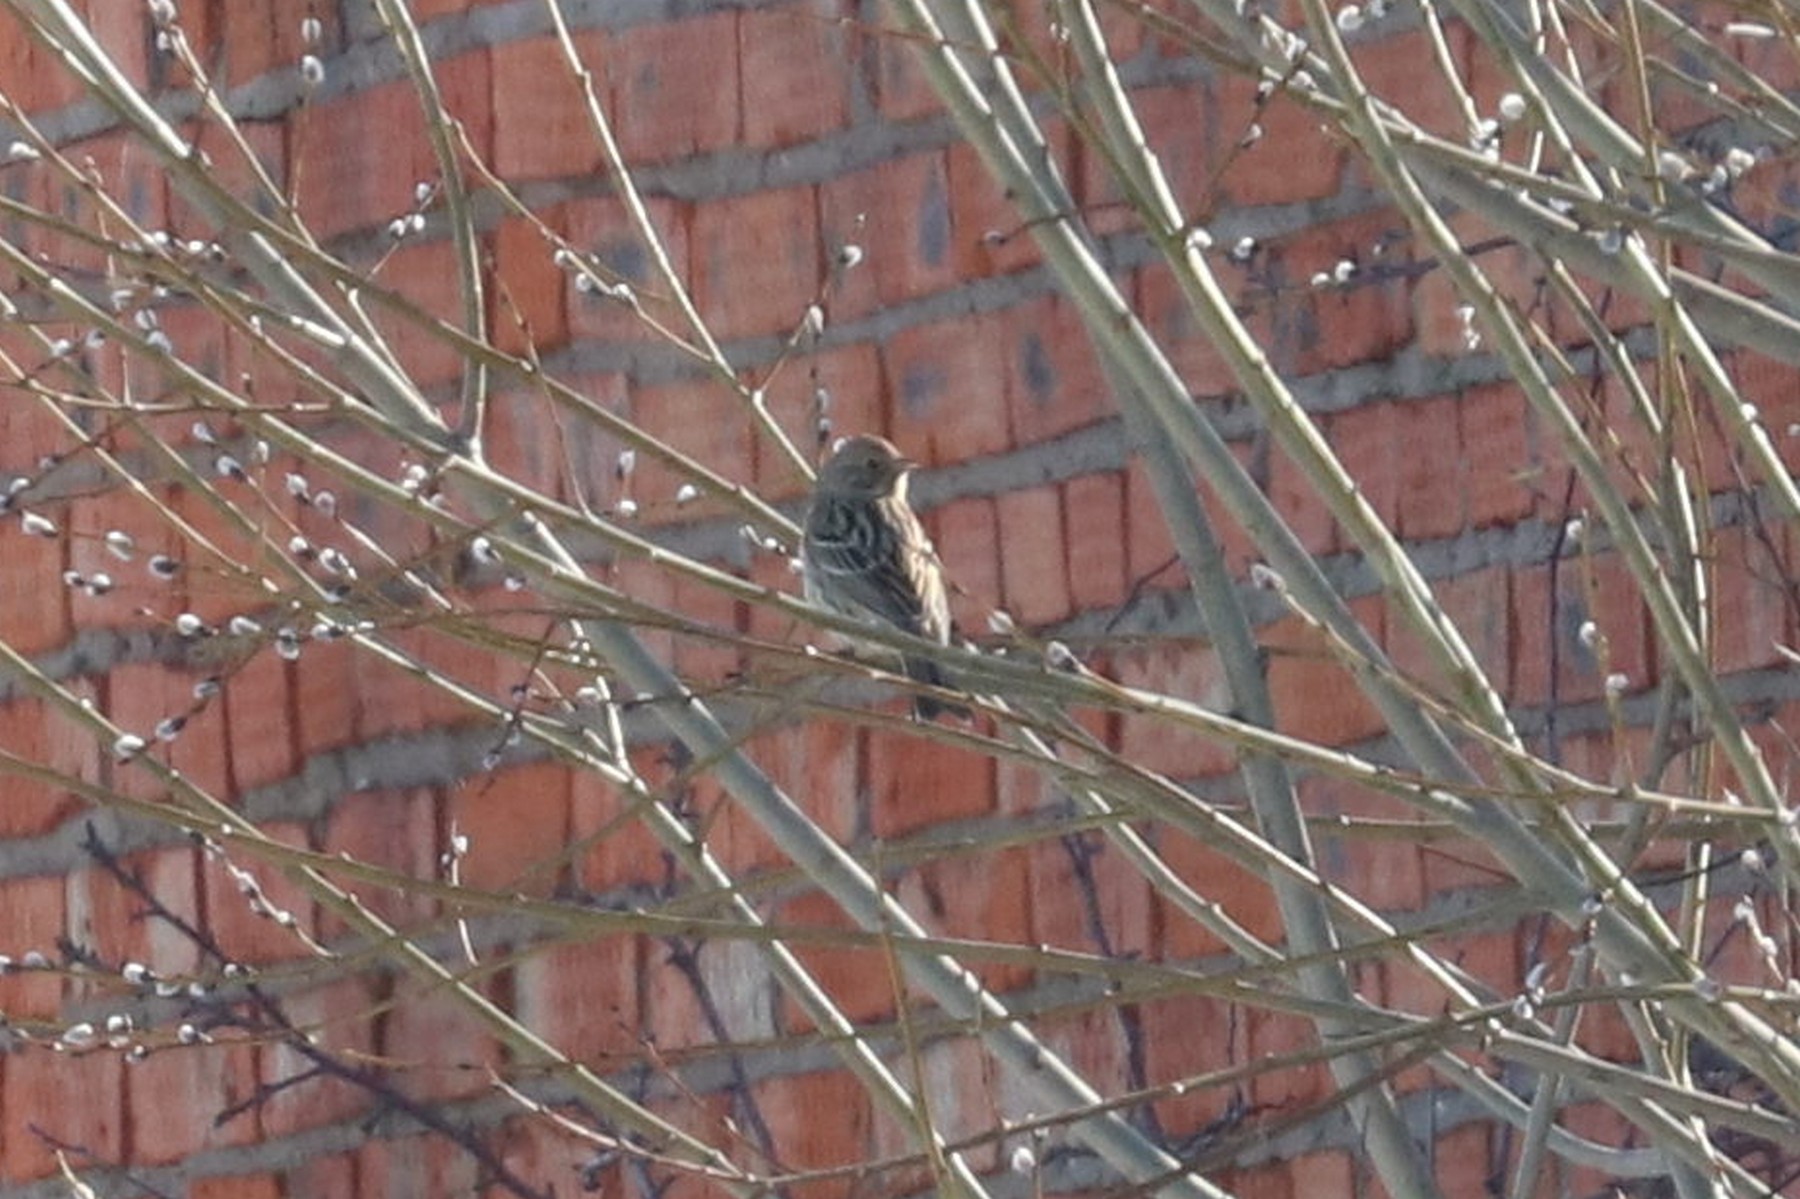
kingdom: Animalia
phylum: Chordata
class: Aves
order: Passeriformes
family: Emberizidae
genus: Emberiza
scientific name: Emberiza citrinella
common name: Yellowhammer
